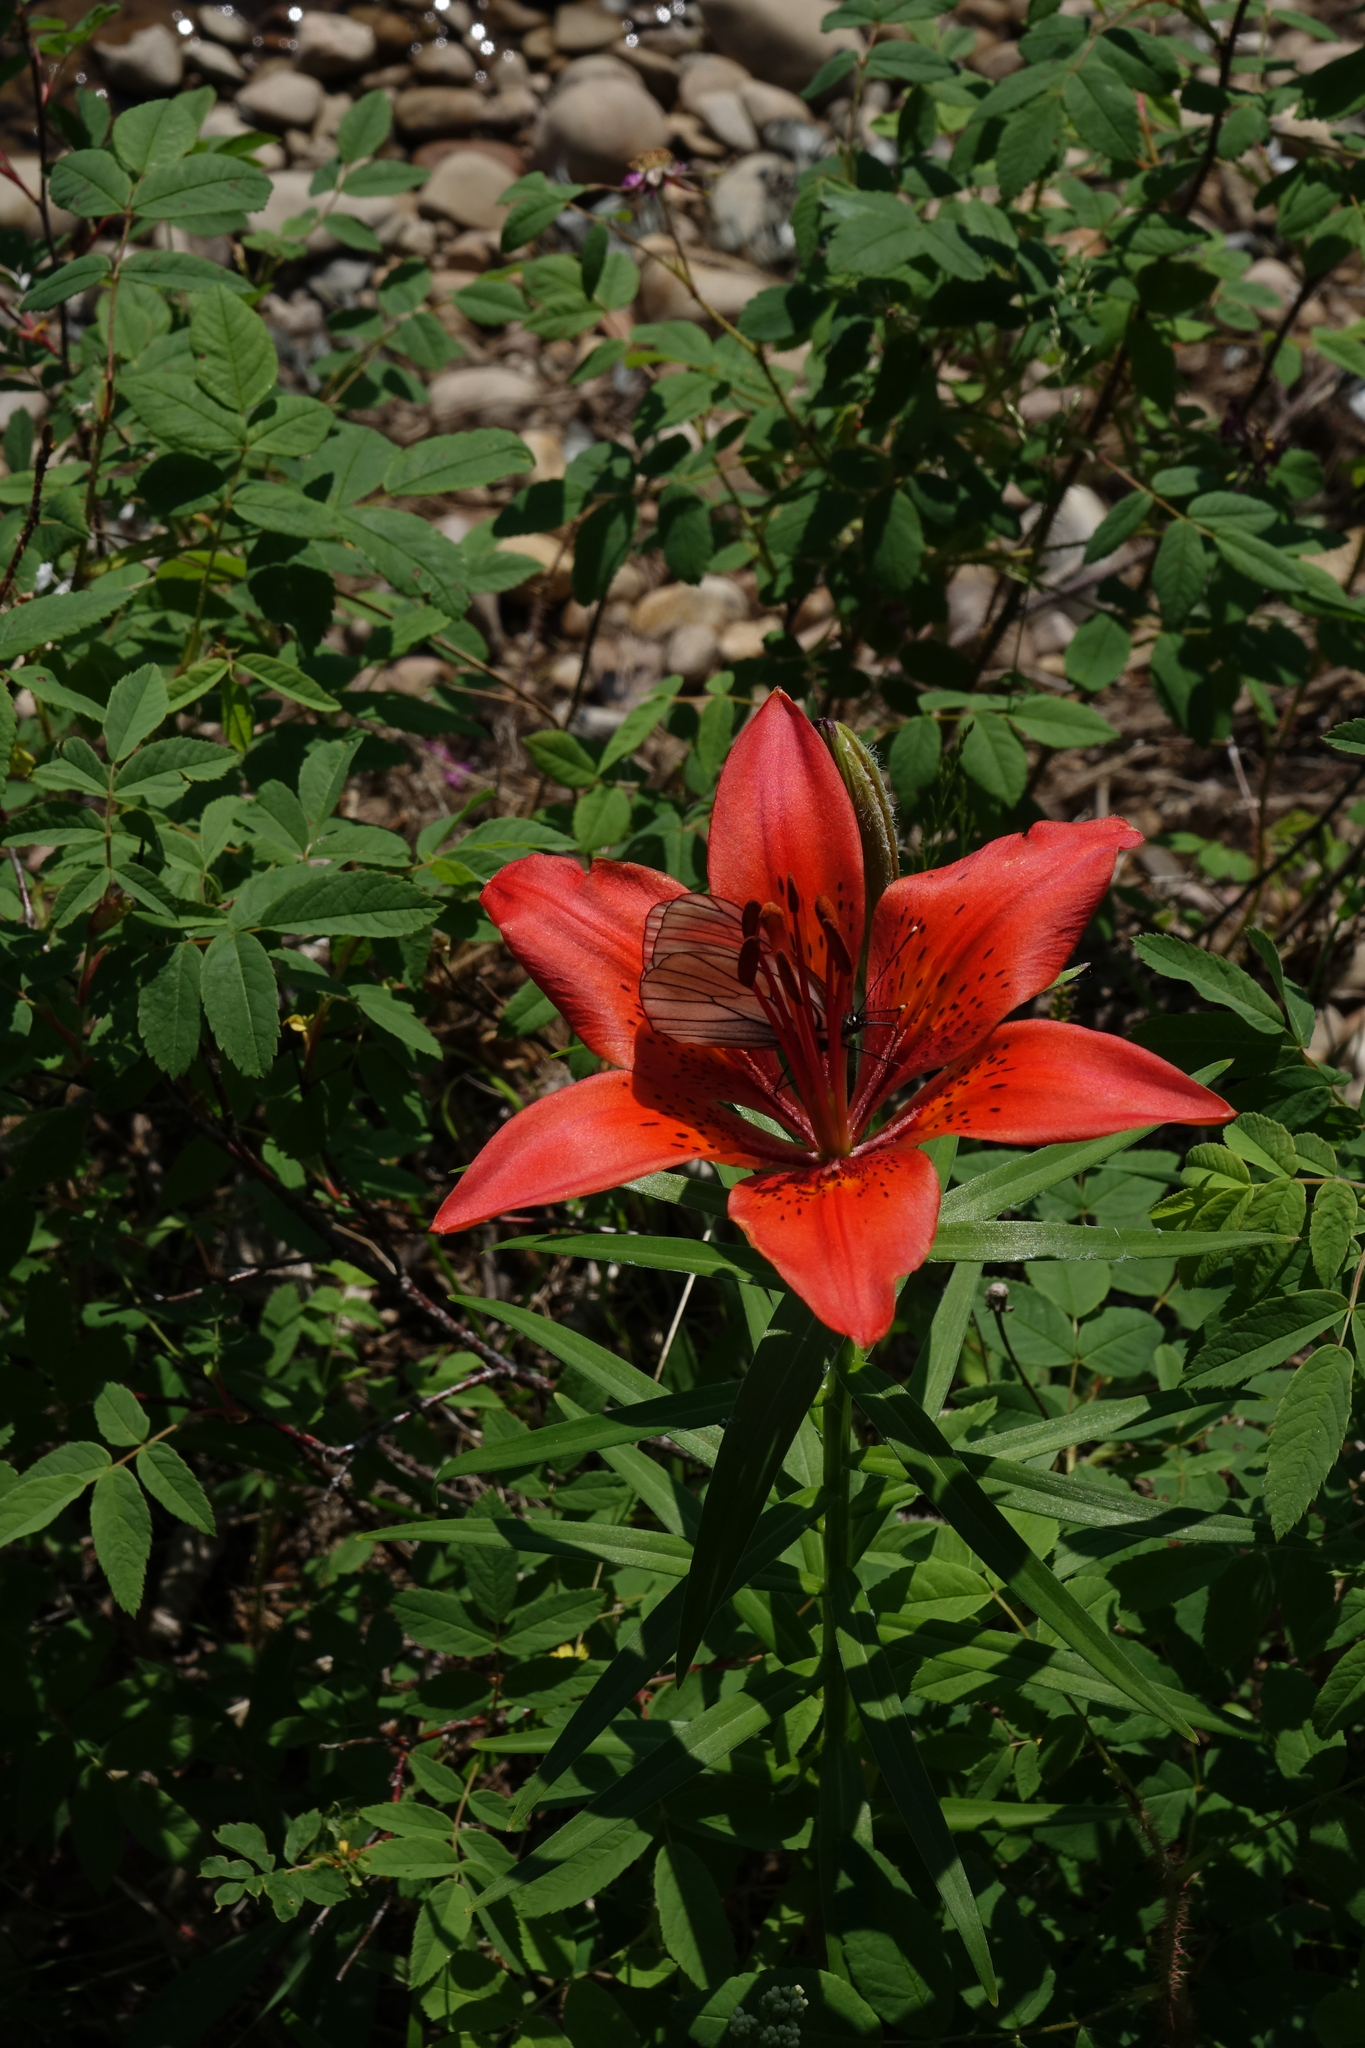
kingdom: Animalia
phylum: Arthropoda
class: Insecta
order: Lepidoptera
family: Pieridae
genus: Aporia
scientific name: Aporia crataegi
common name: Black-veined white
